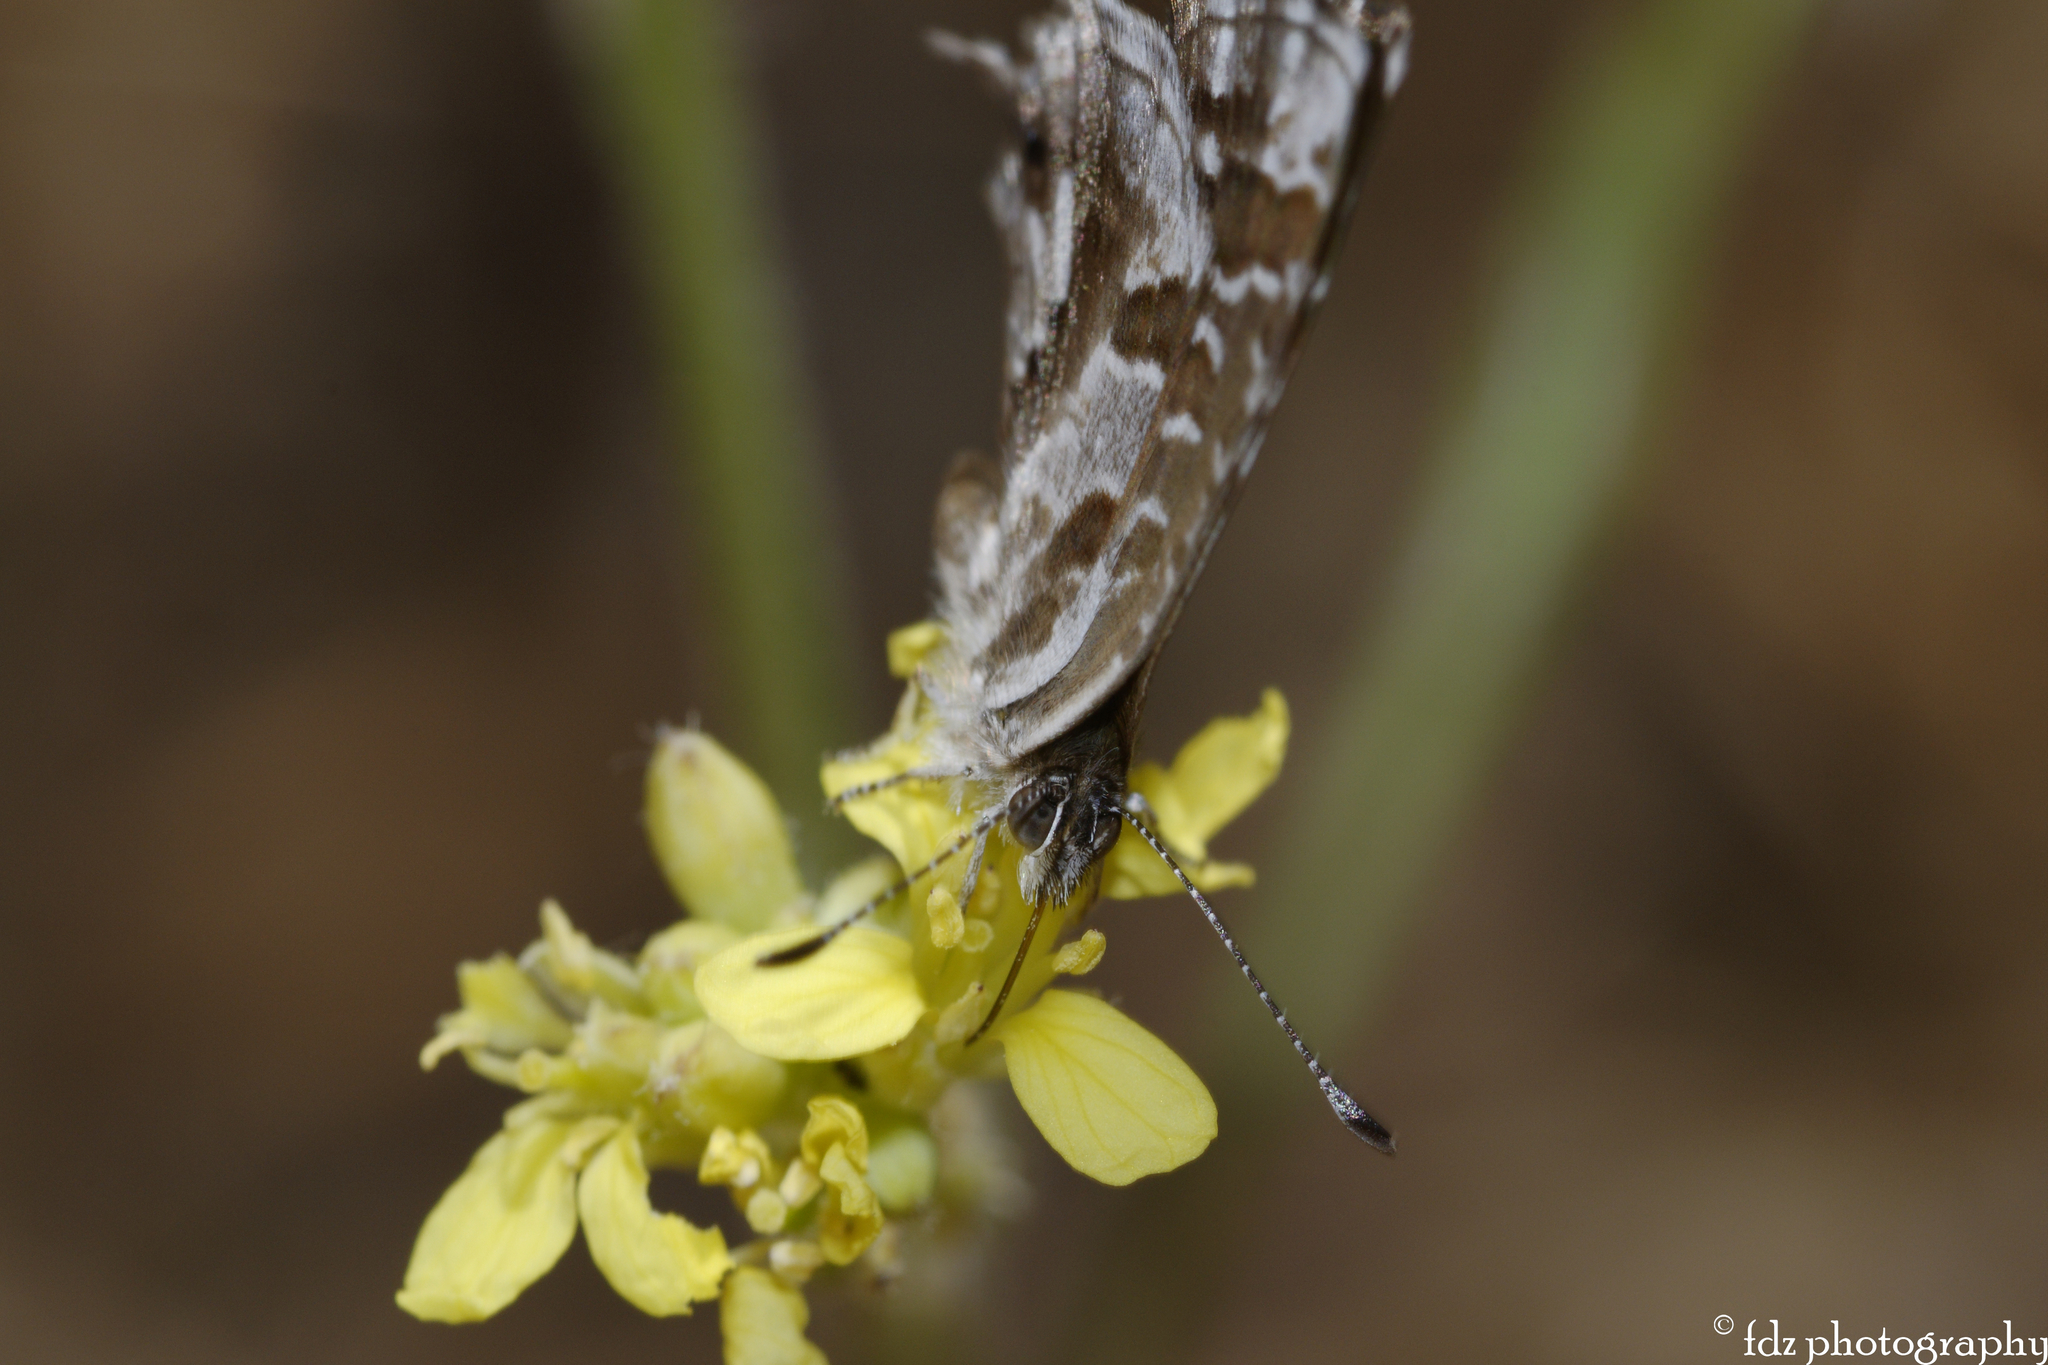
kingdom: Animalia
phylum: Arthropoda
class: Insecta
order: Lepidoptera
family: Lycaenidae
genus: Cacyreus
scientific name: Cacyreus marshalli
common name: Geranium bronze
